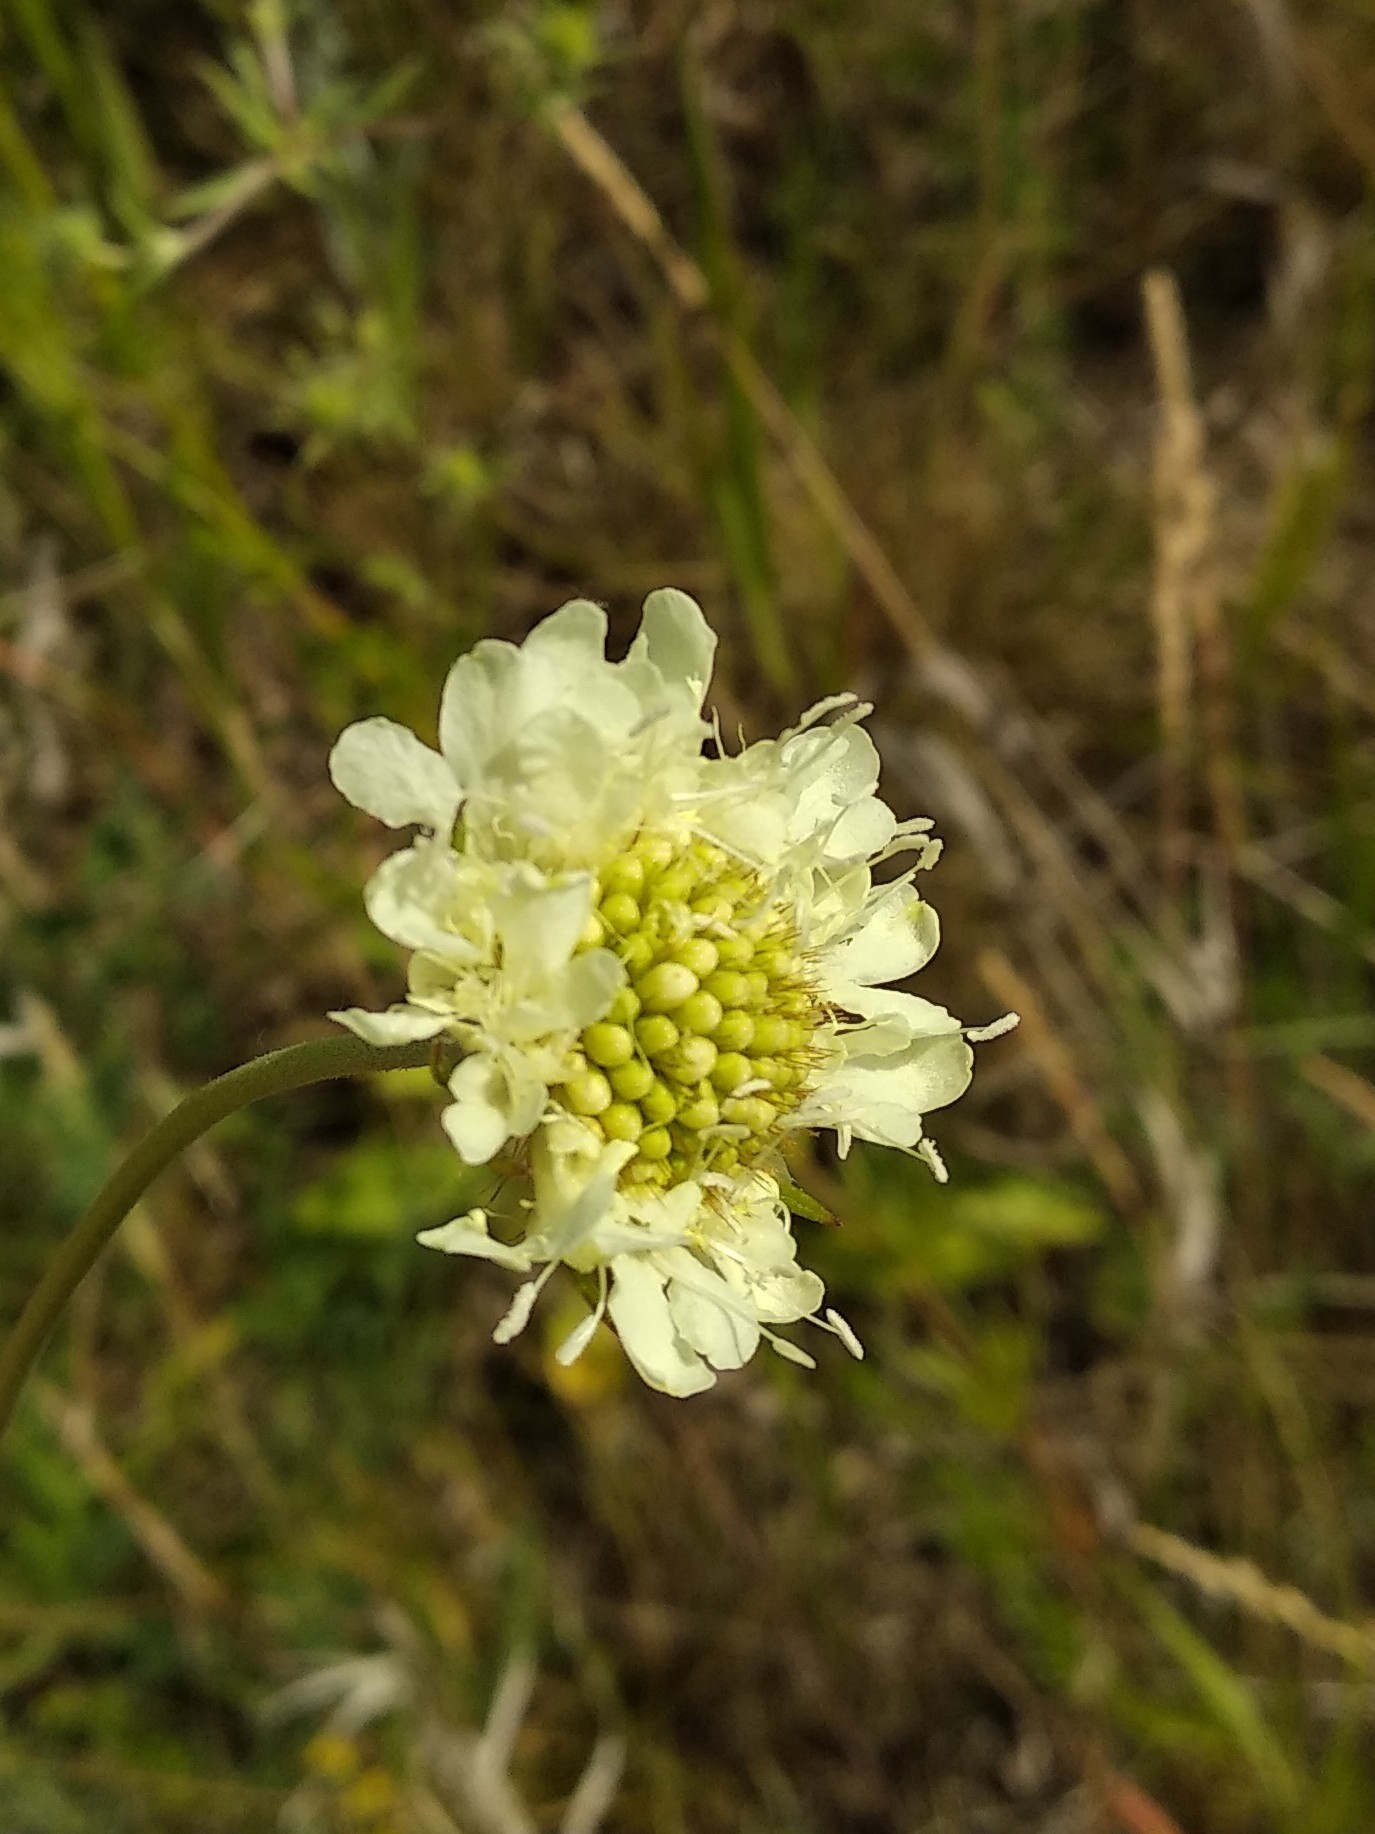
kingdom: Plantae
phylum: Tracheophyta
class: Magnoliopsida
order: Dipsacales
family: Caprifoliaceae
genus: Scabiosa
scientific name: Scabiosa ochroleuca
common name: Cream pincushions
